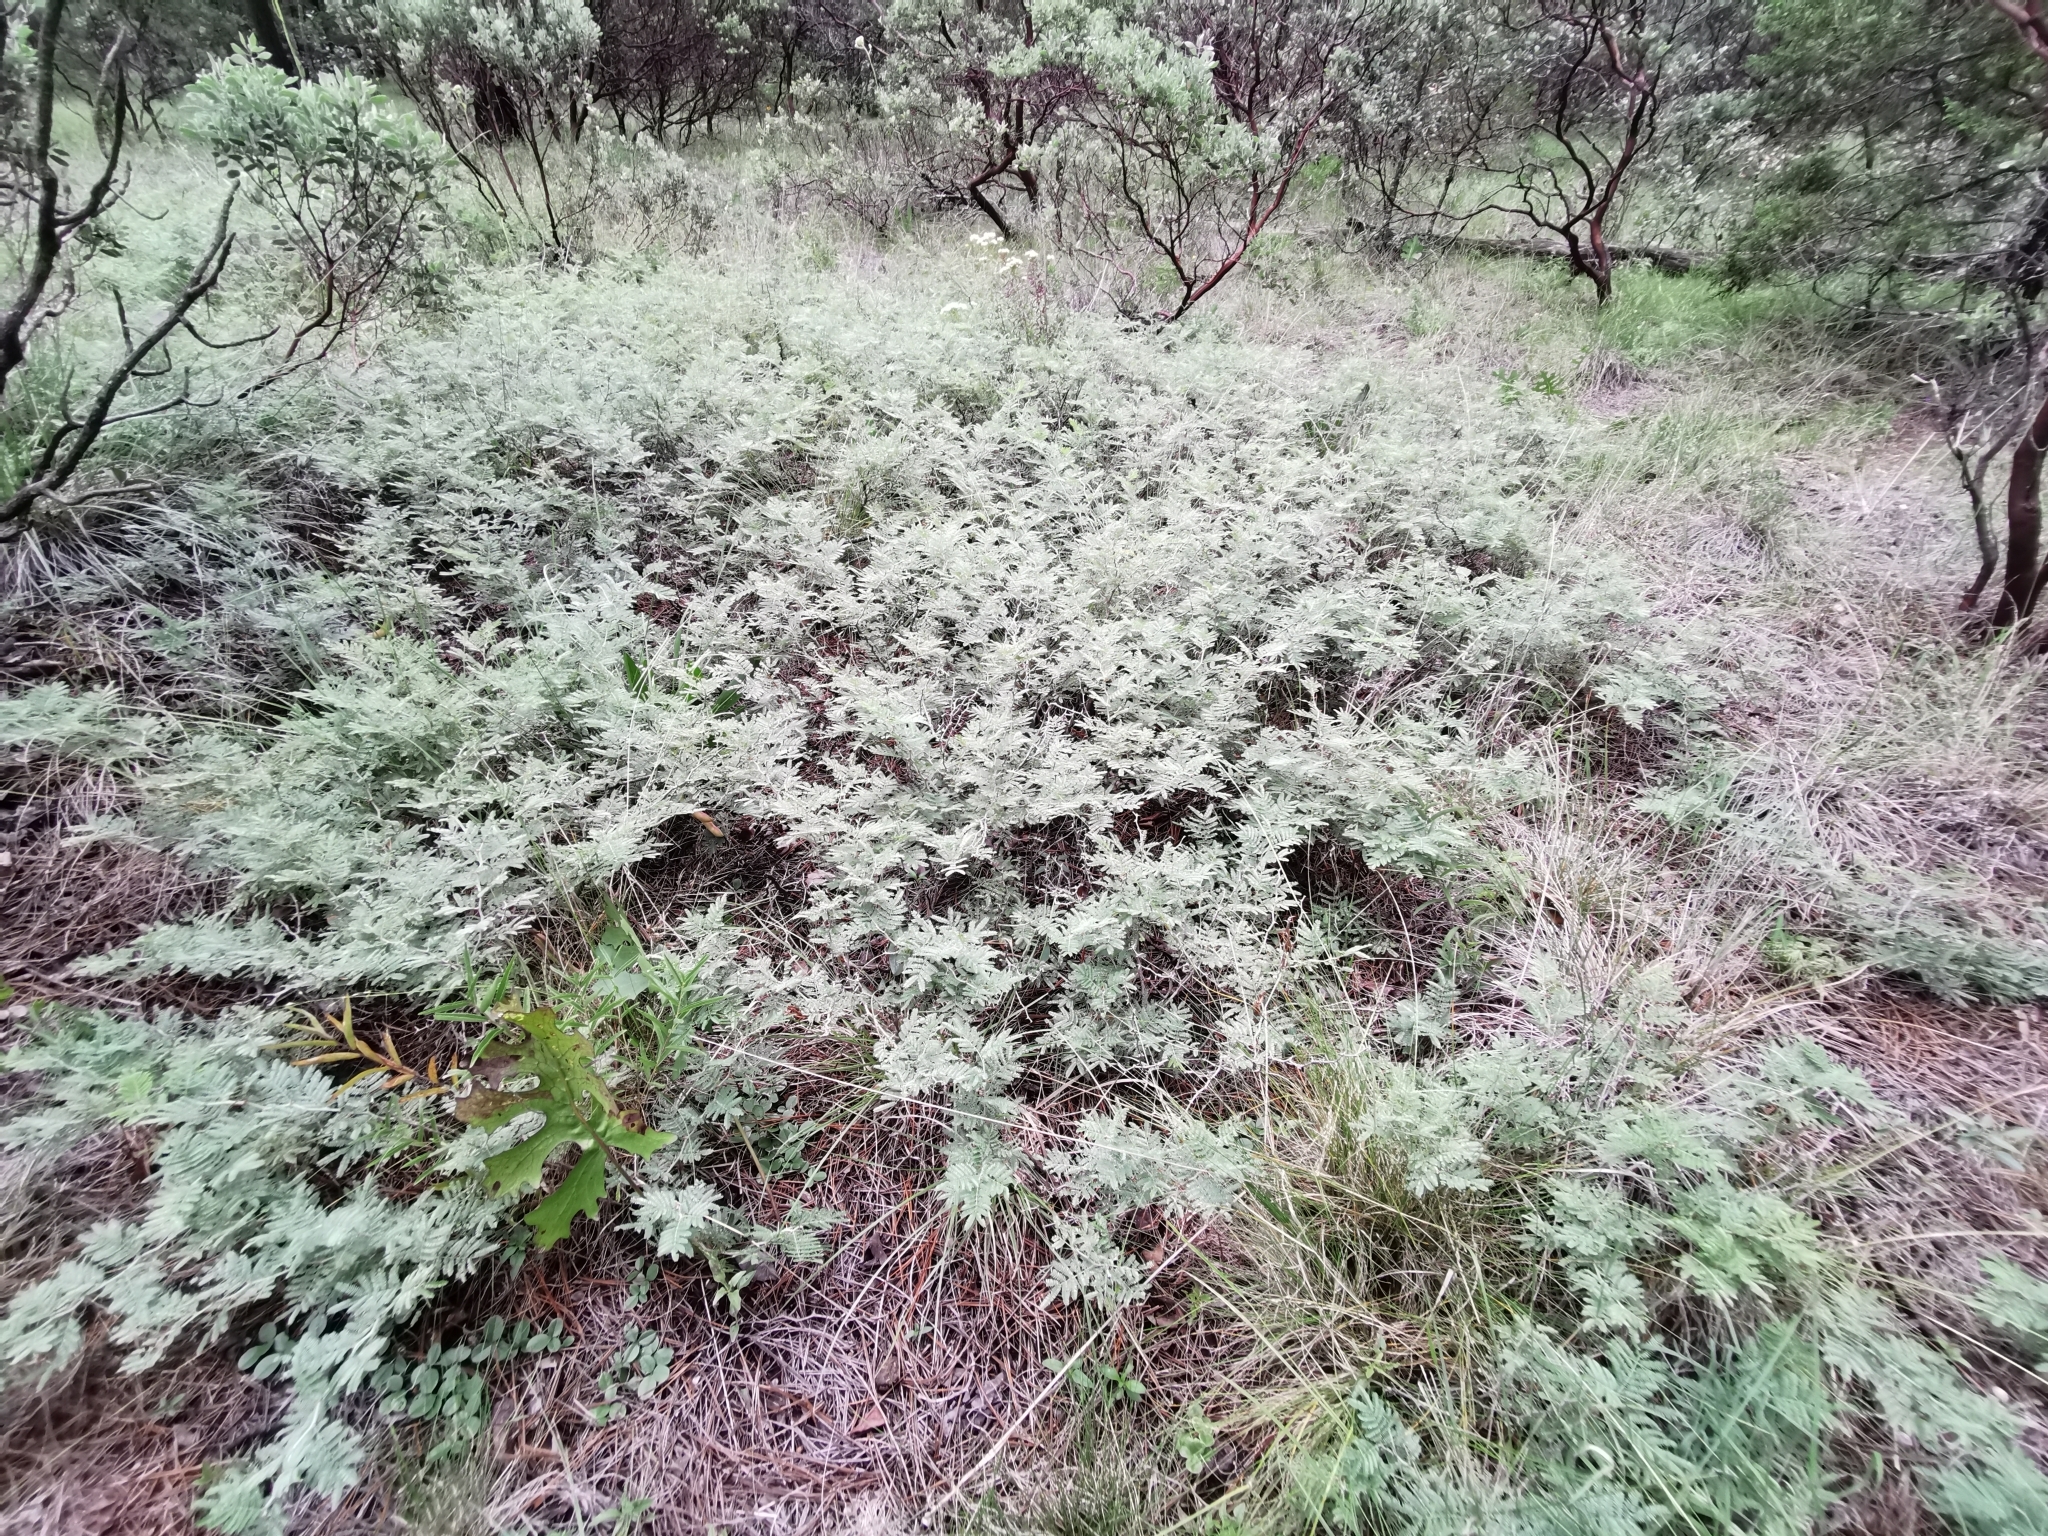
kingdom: Plantae
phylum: Tracheophyta
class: Magnoliopsida
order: Fabales
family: Fabaceae
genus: Painteria
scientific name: Painteria leptophylla
